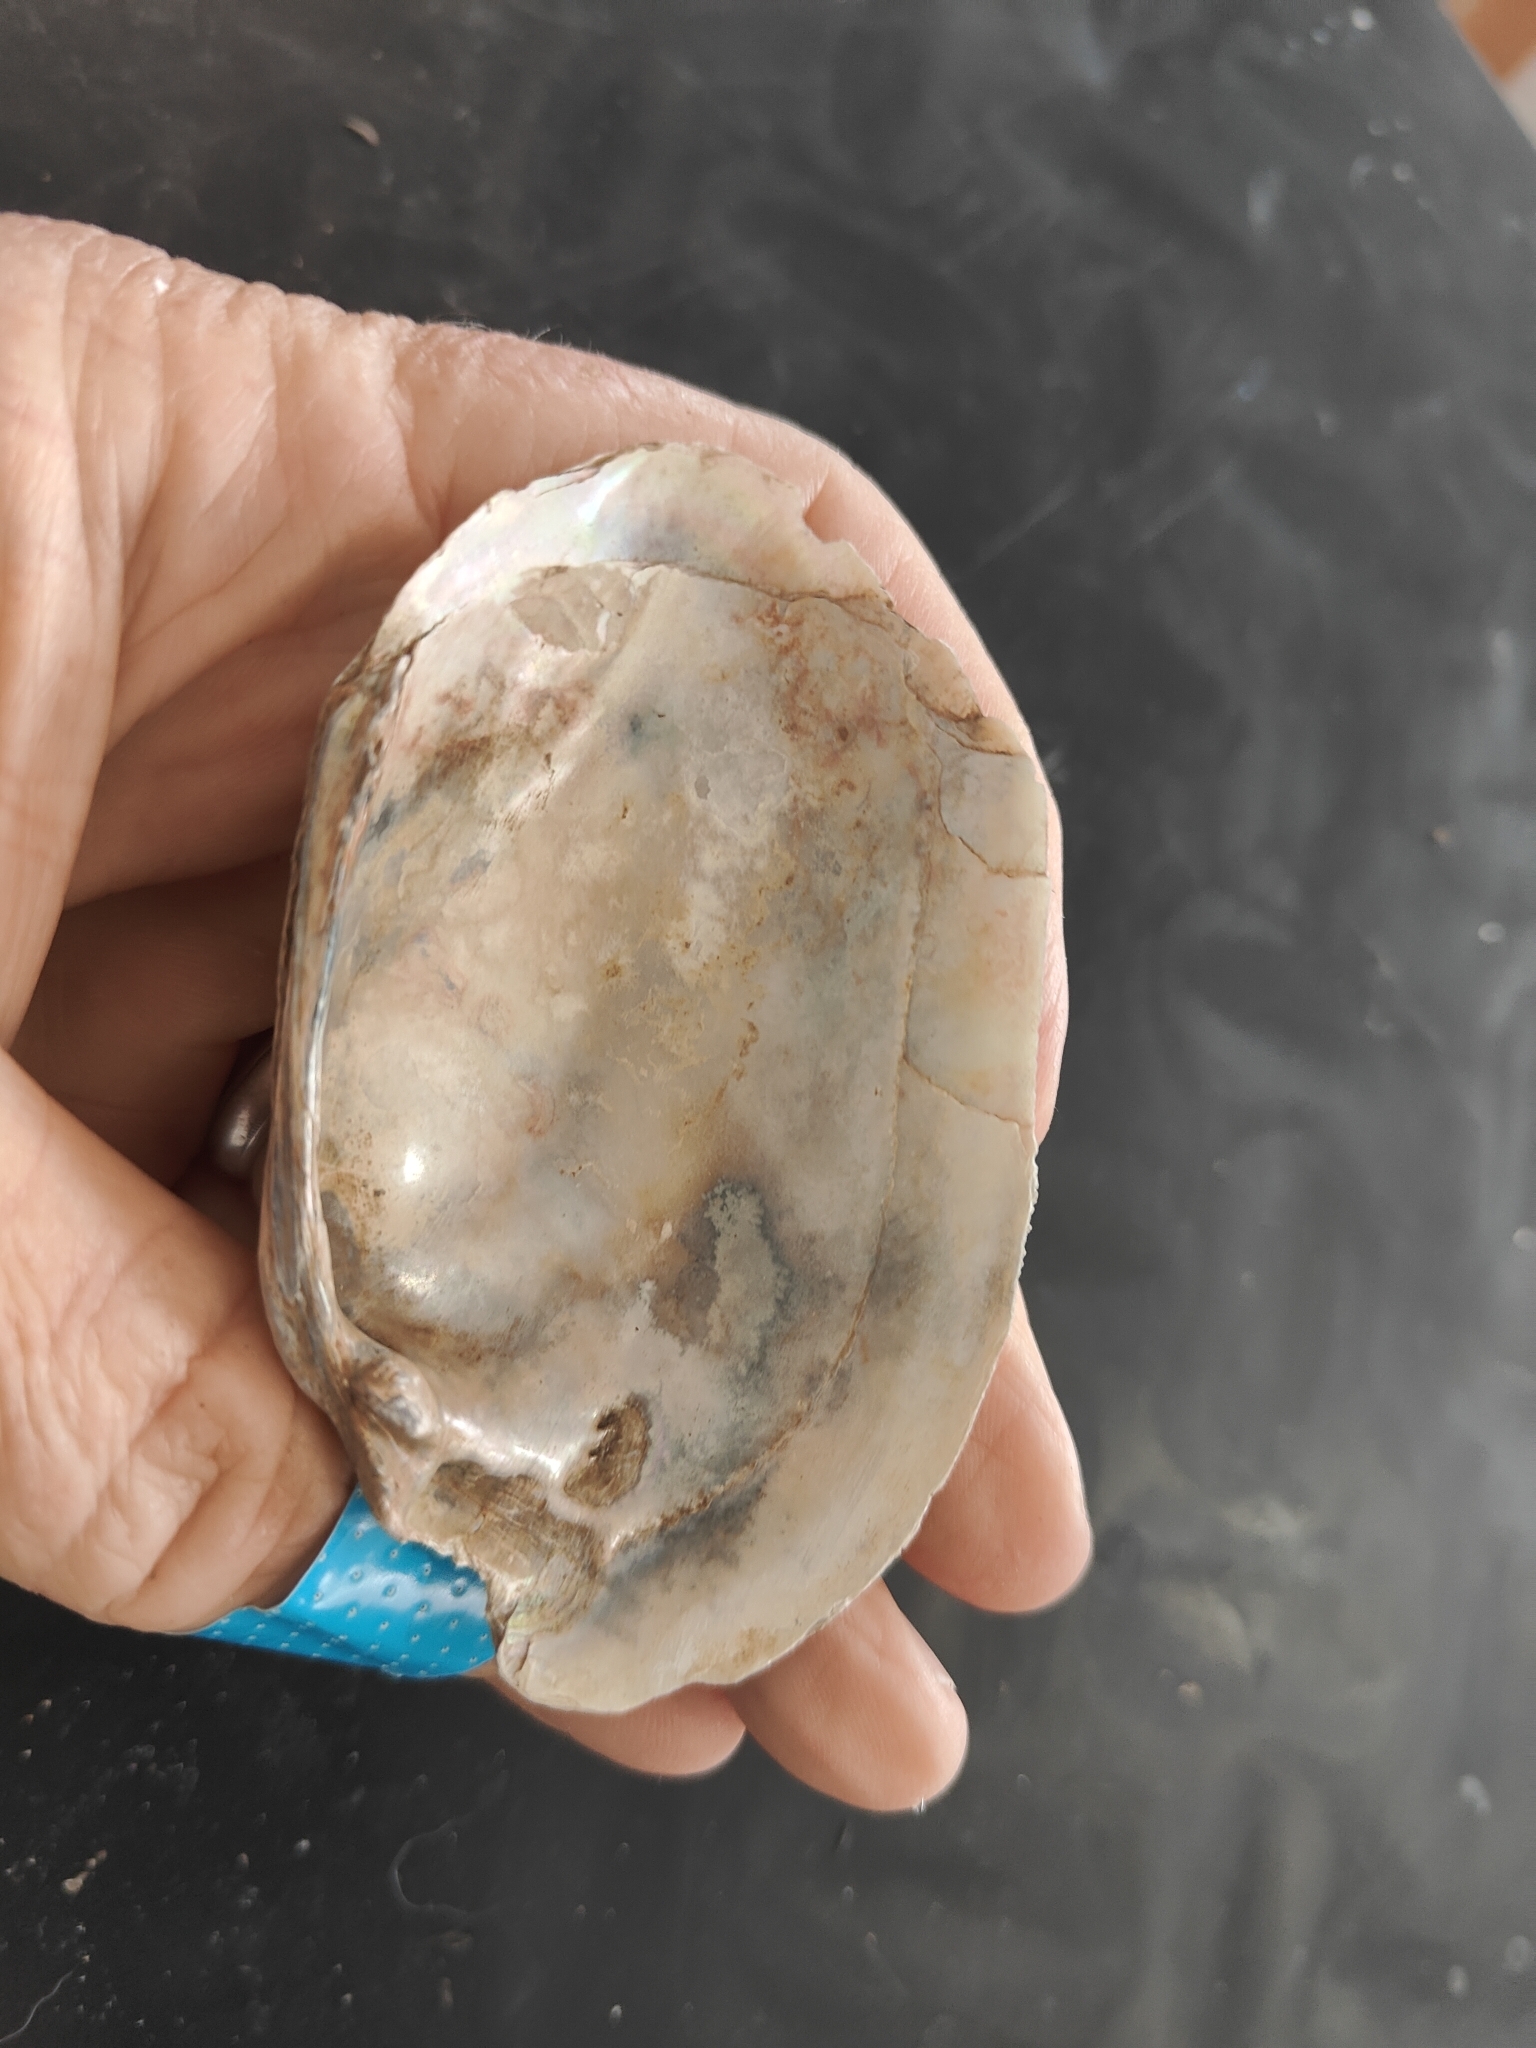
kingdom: Animalia
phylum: Mollusca
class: Bivalvia
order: Unionida
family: Unionidae
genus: Lampsilis
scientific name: Lampsilis siliquoidea
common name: Fatmucket
